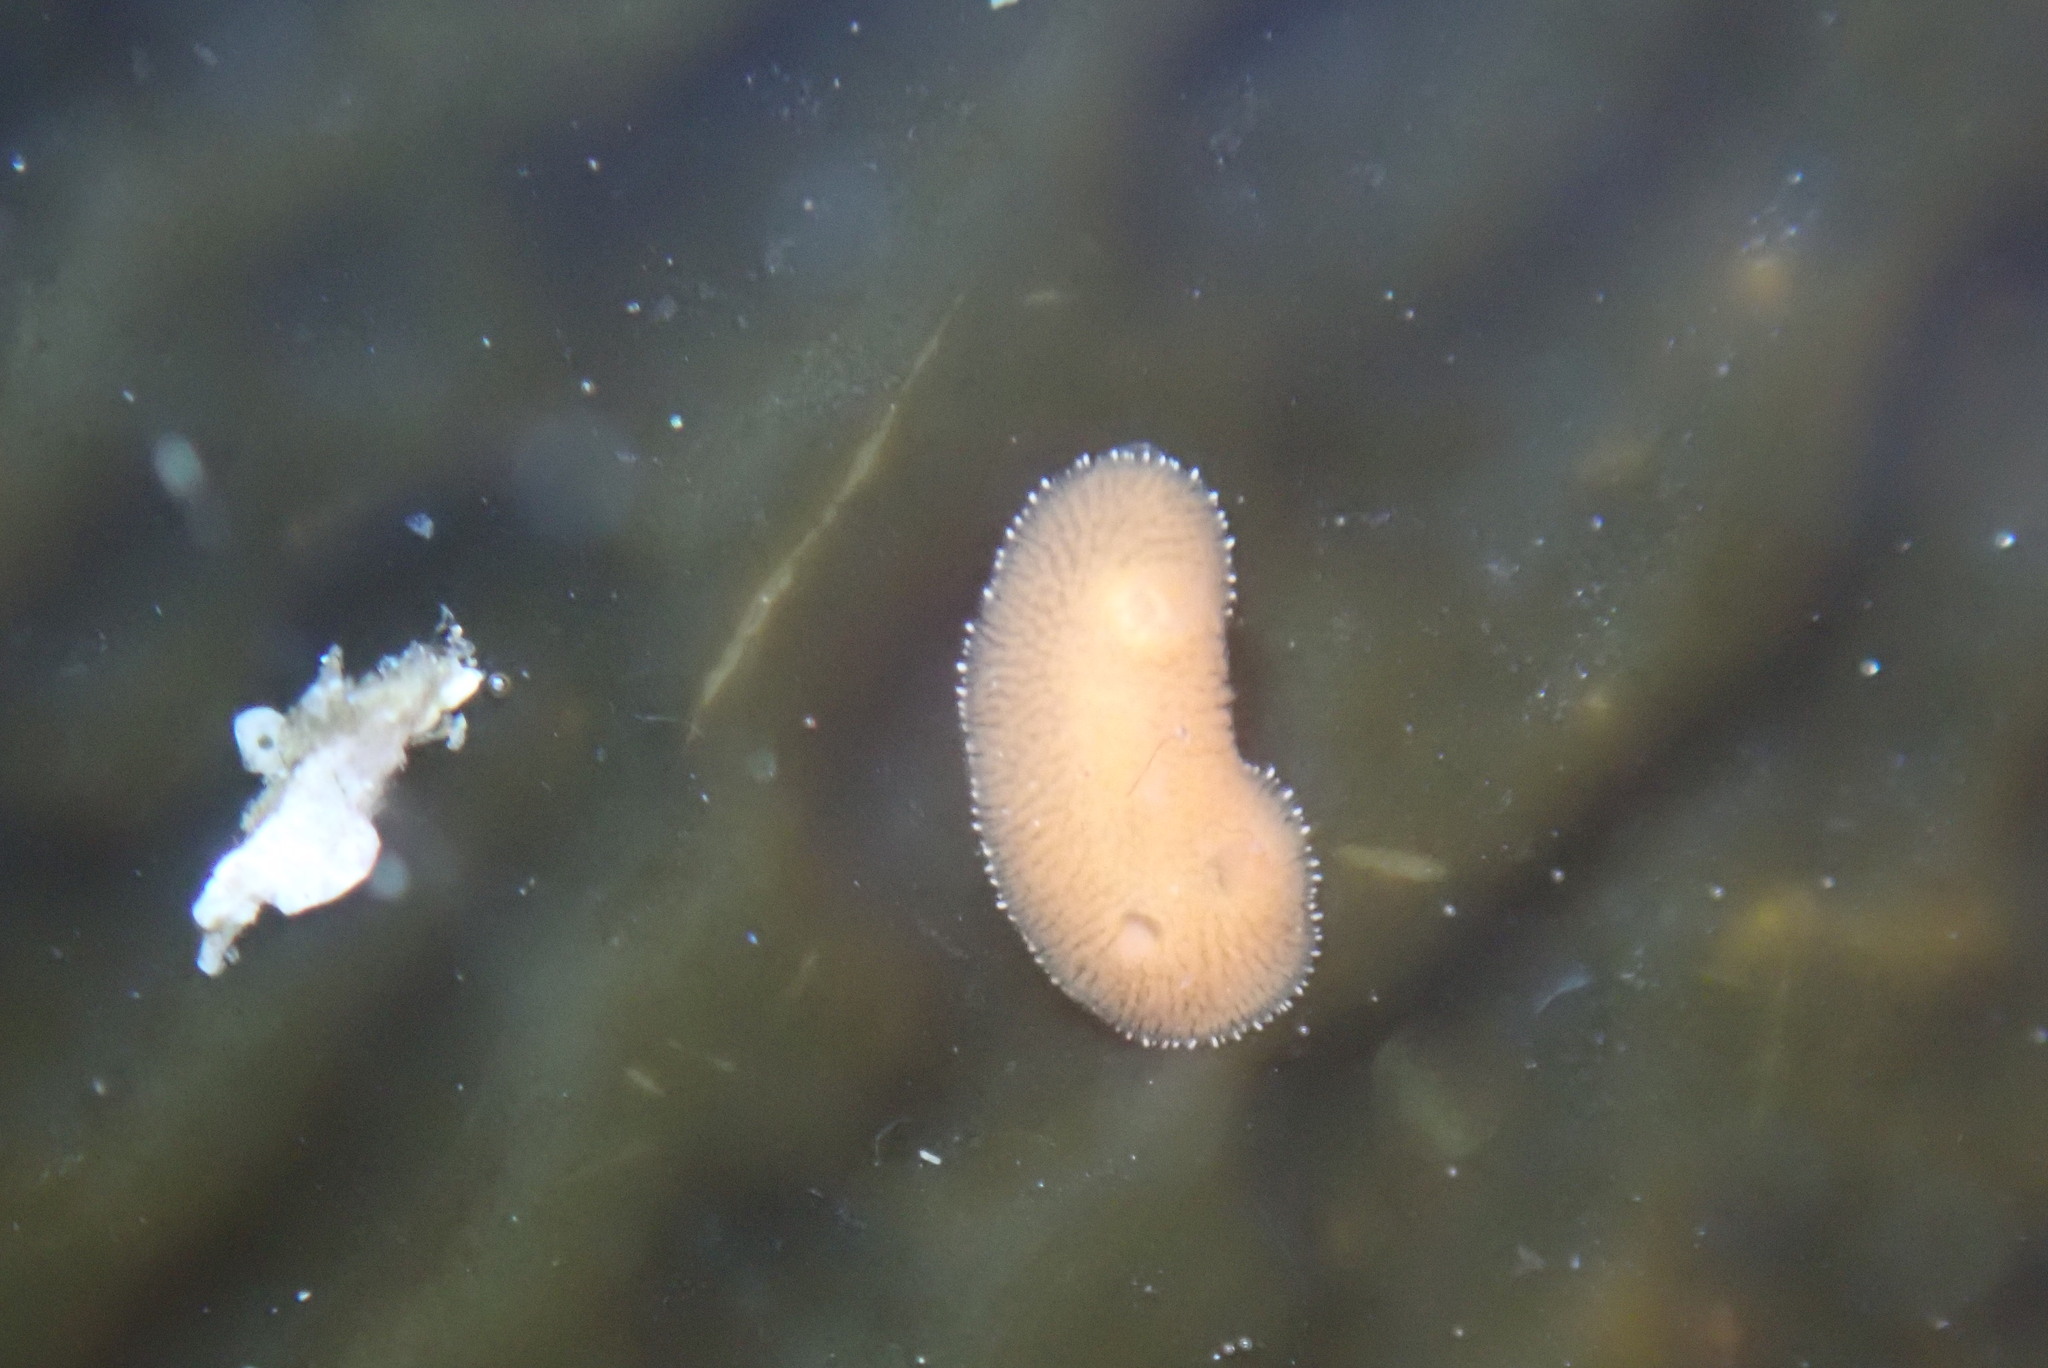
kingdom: Animalia
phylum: Mollusca
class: Gastropoda
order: Nudibranchia
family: Discodorididae
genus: Rostanga
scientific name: Rostanga pulchra
